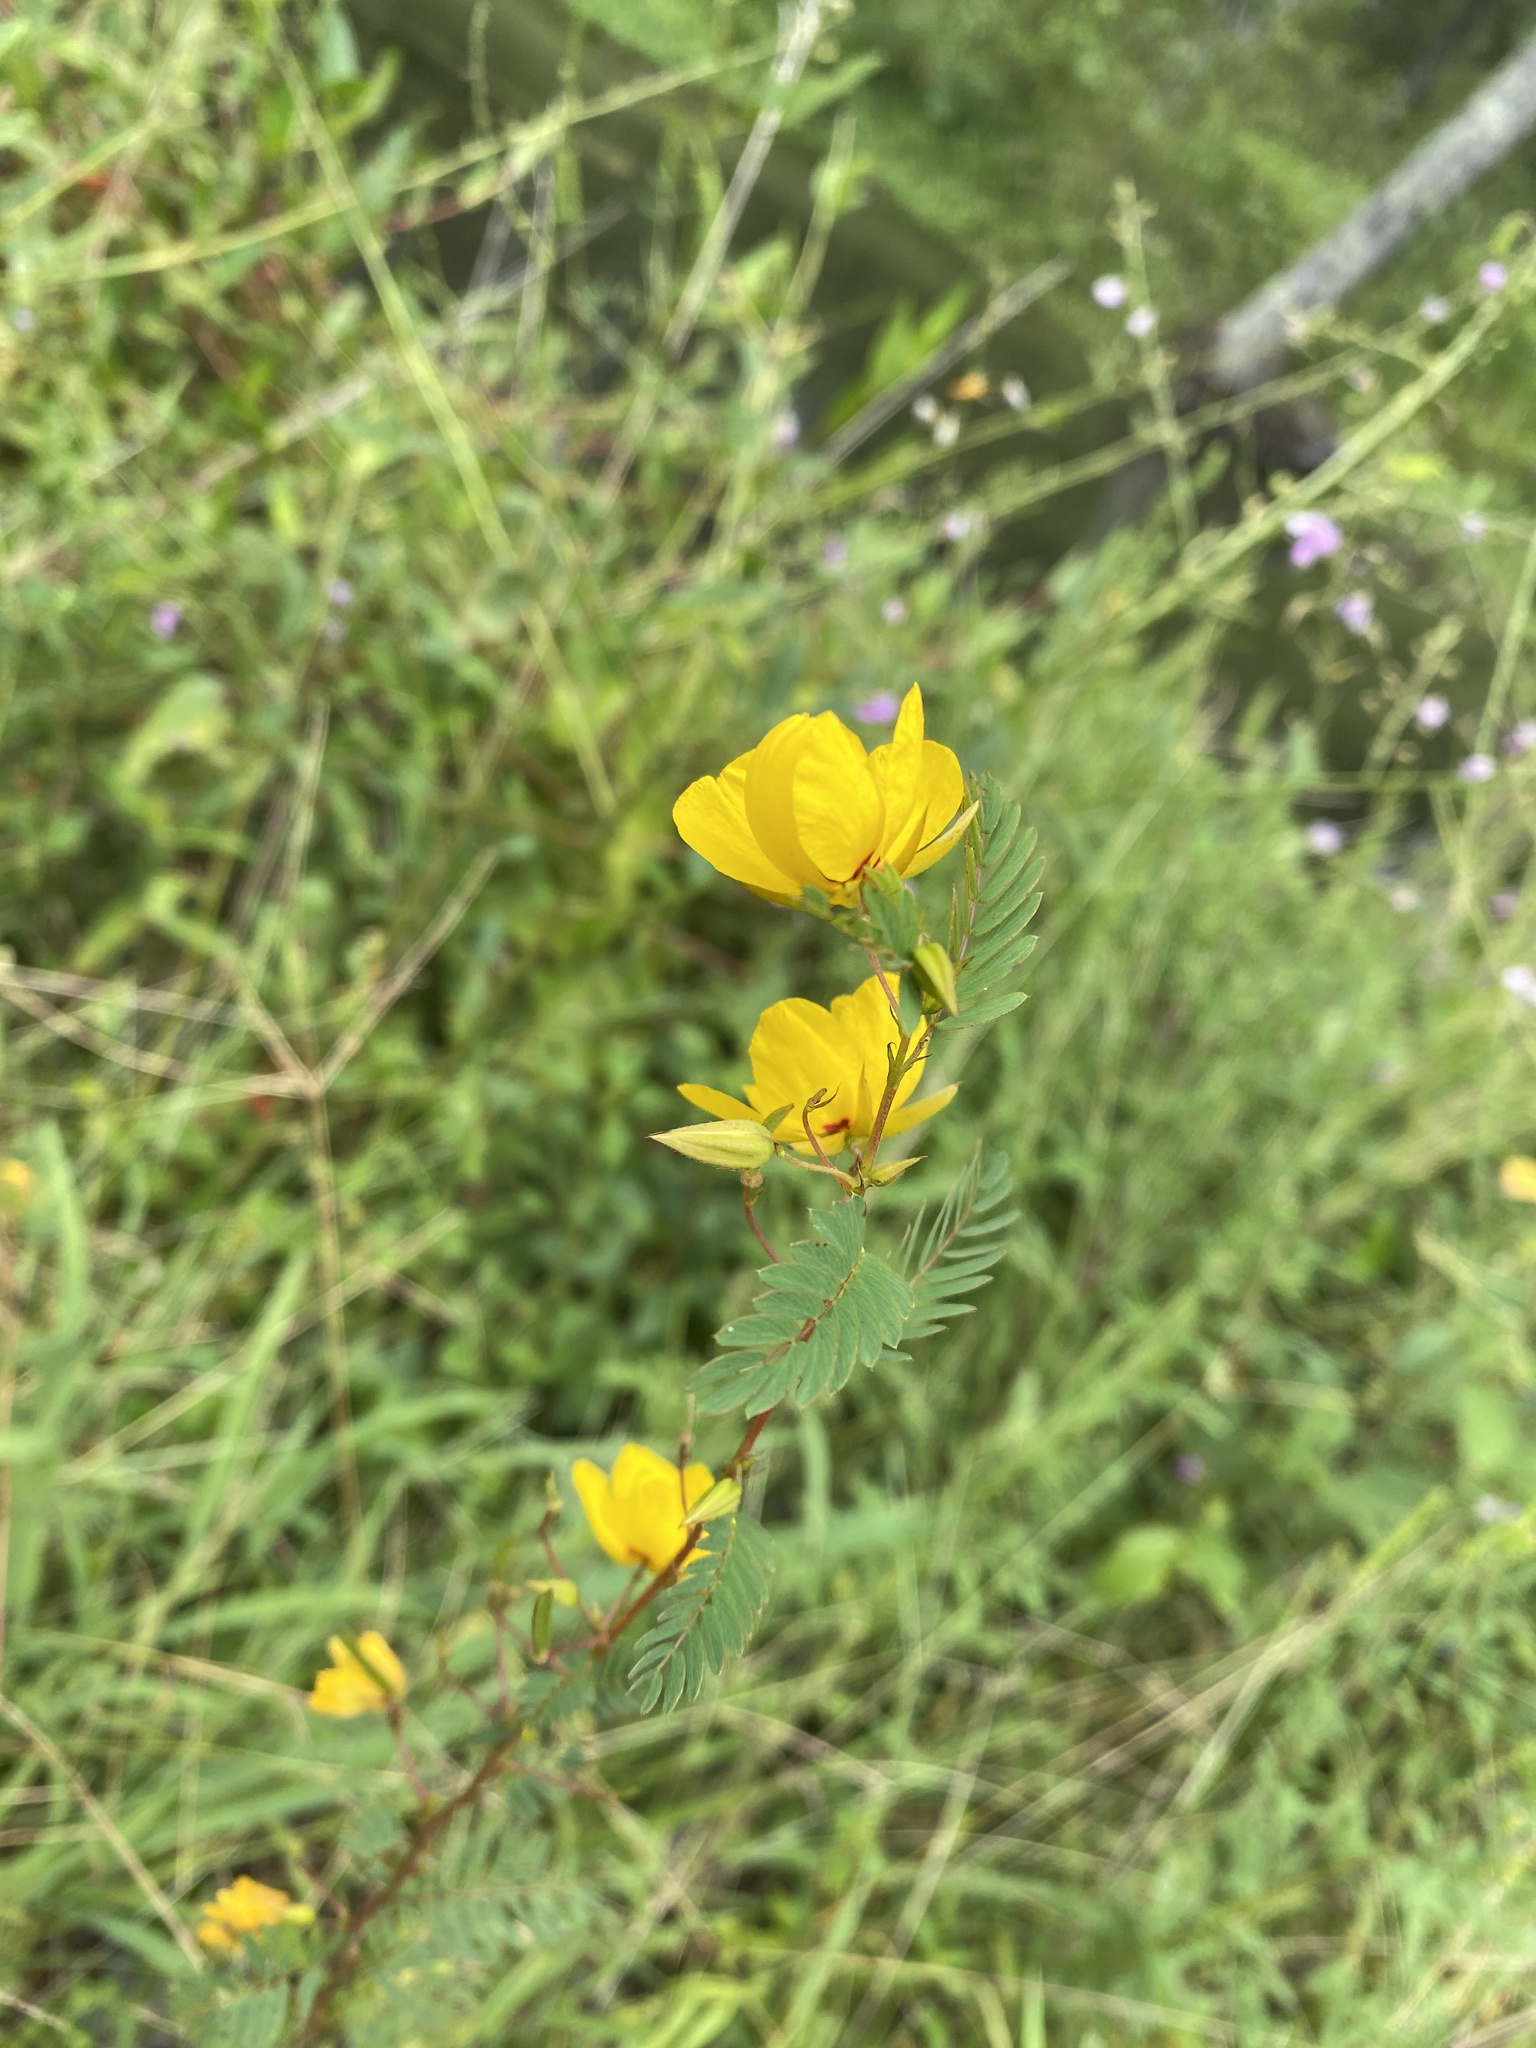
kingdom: Plantae
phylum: Tracheophyta
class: Magnoliopsida
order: Fabales
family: Fabaceae
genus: Chamaecrista
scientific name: Chamaecrista fasciculata
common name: Golden cassia
